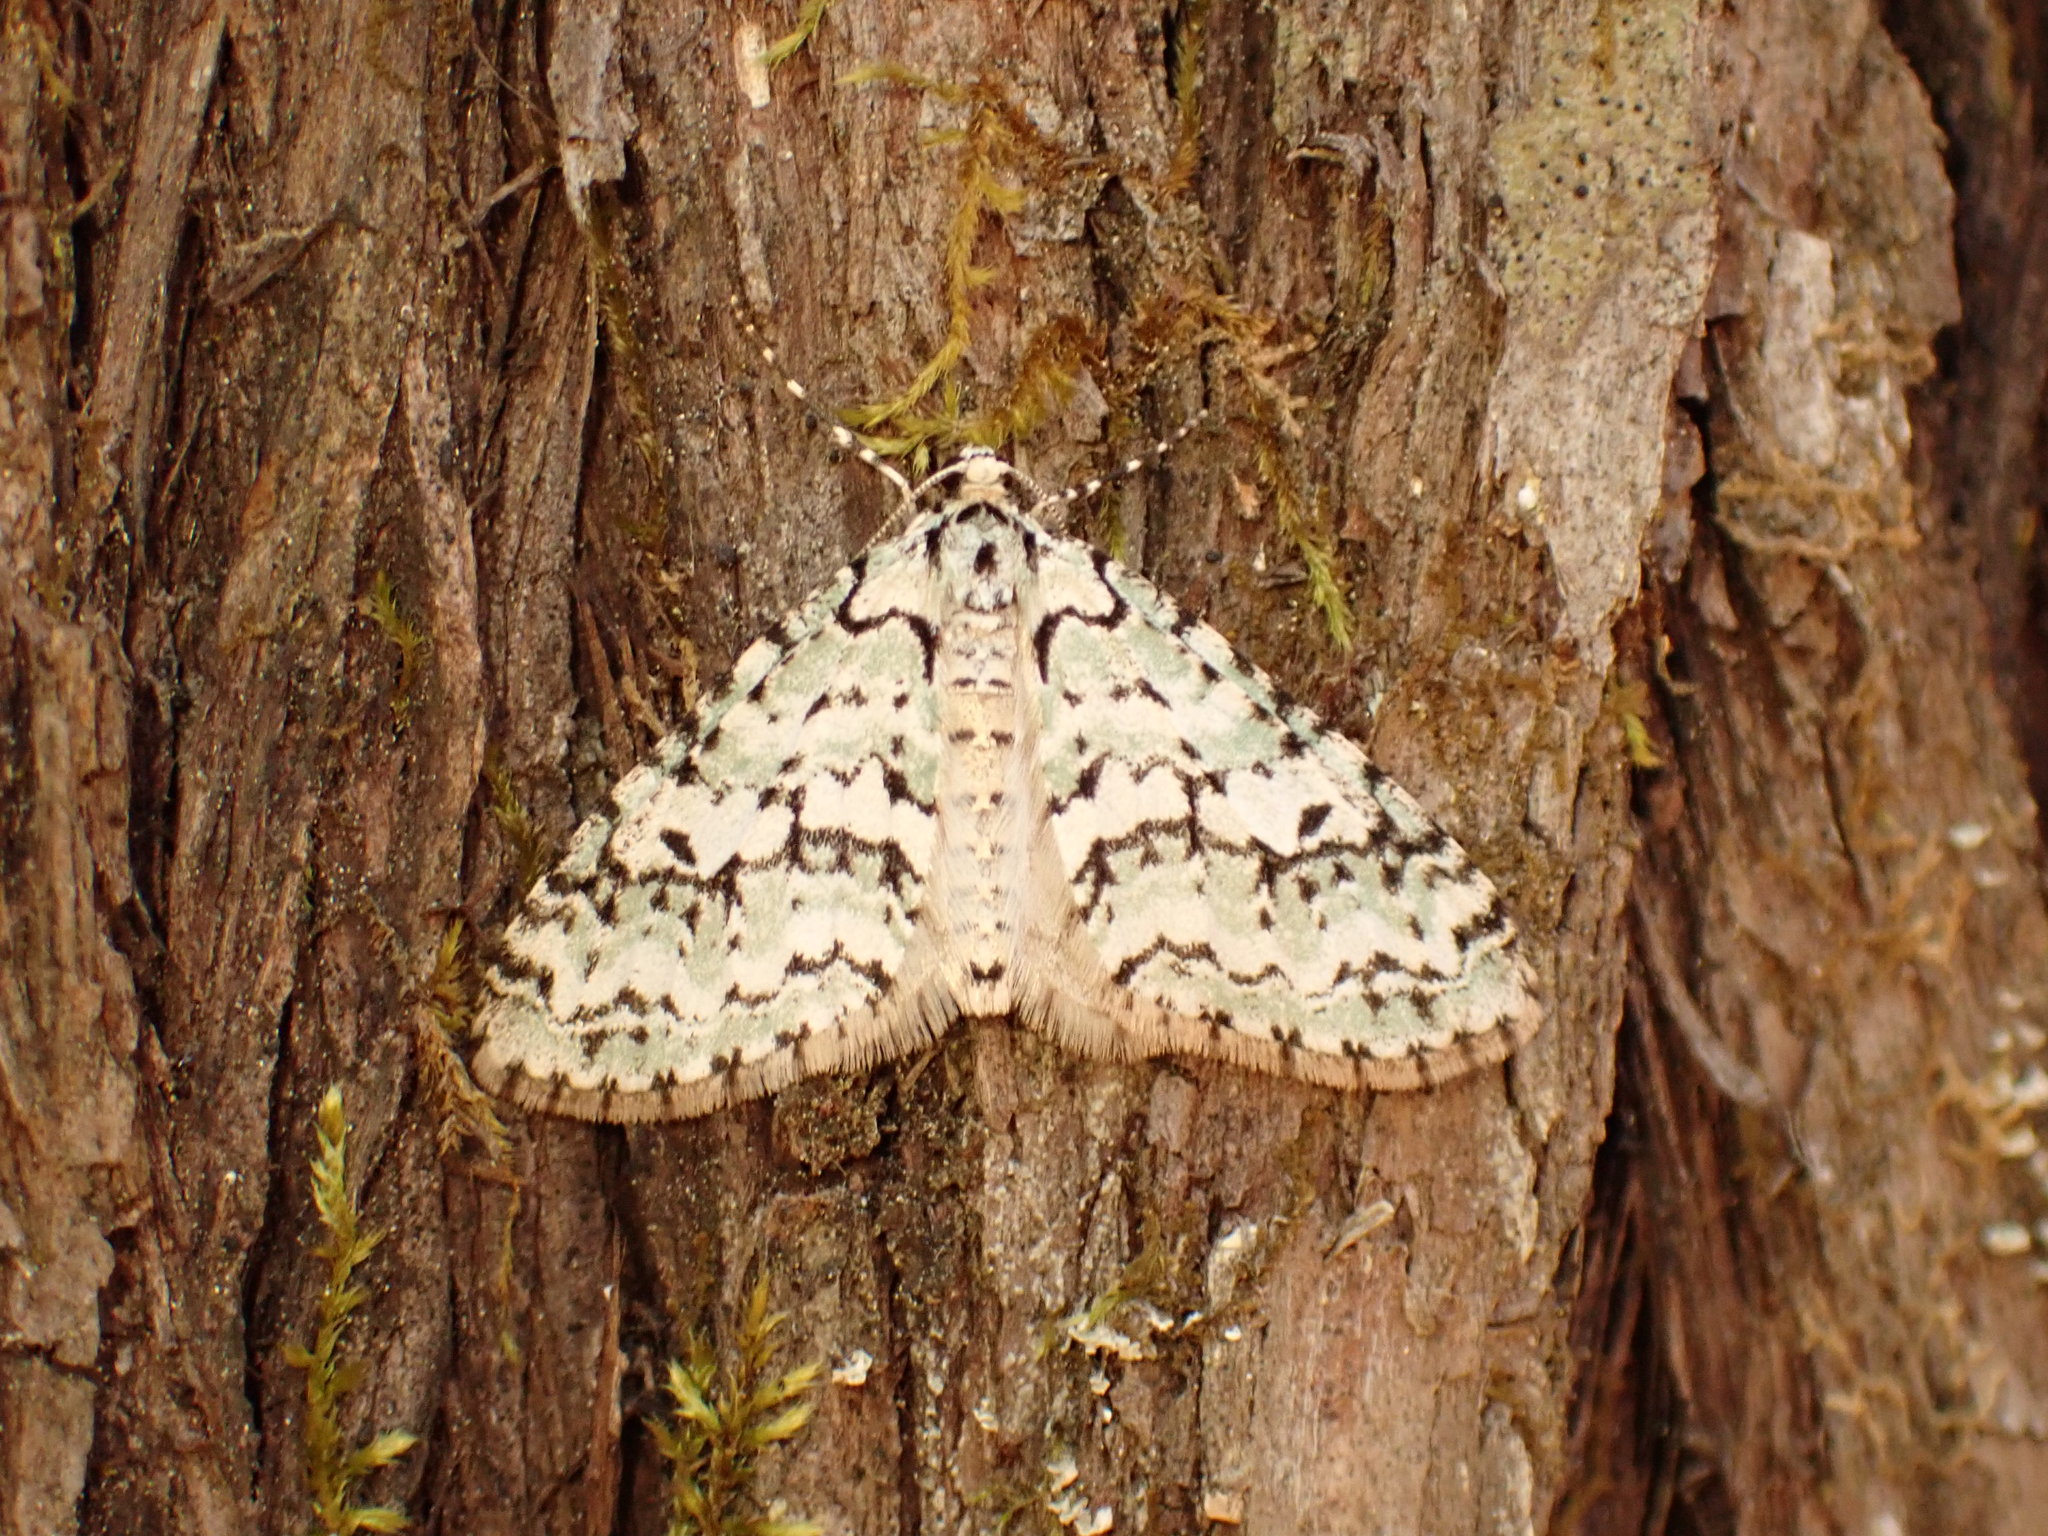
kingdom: Animalia
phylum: Arthropoda
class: Insecta
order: Lepidoptera
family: Geometridae
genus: Cladara
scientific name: Cladara atroliturata
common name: Scribbler
